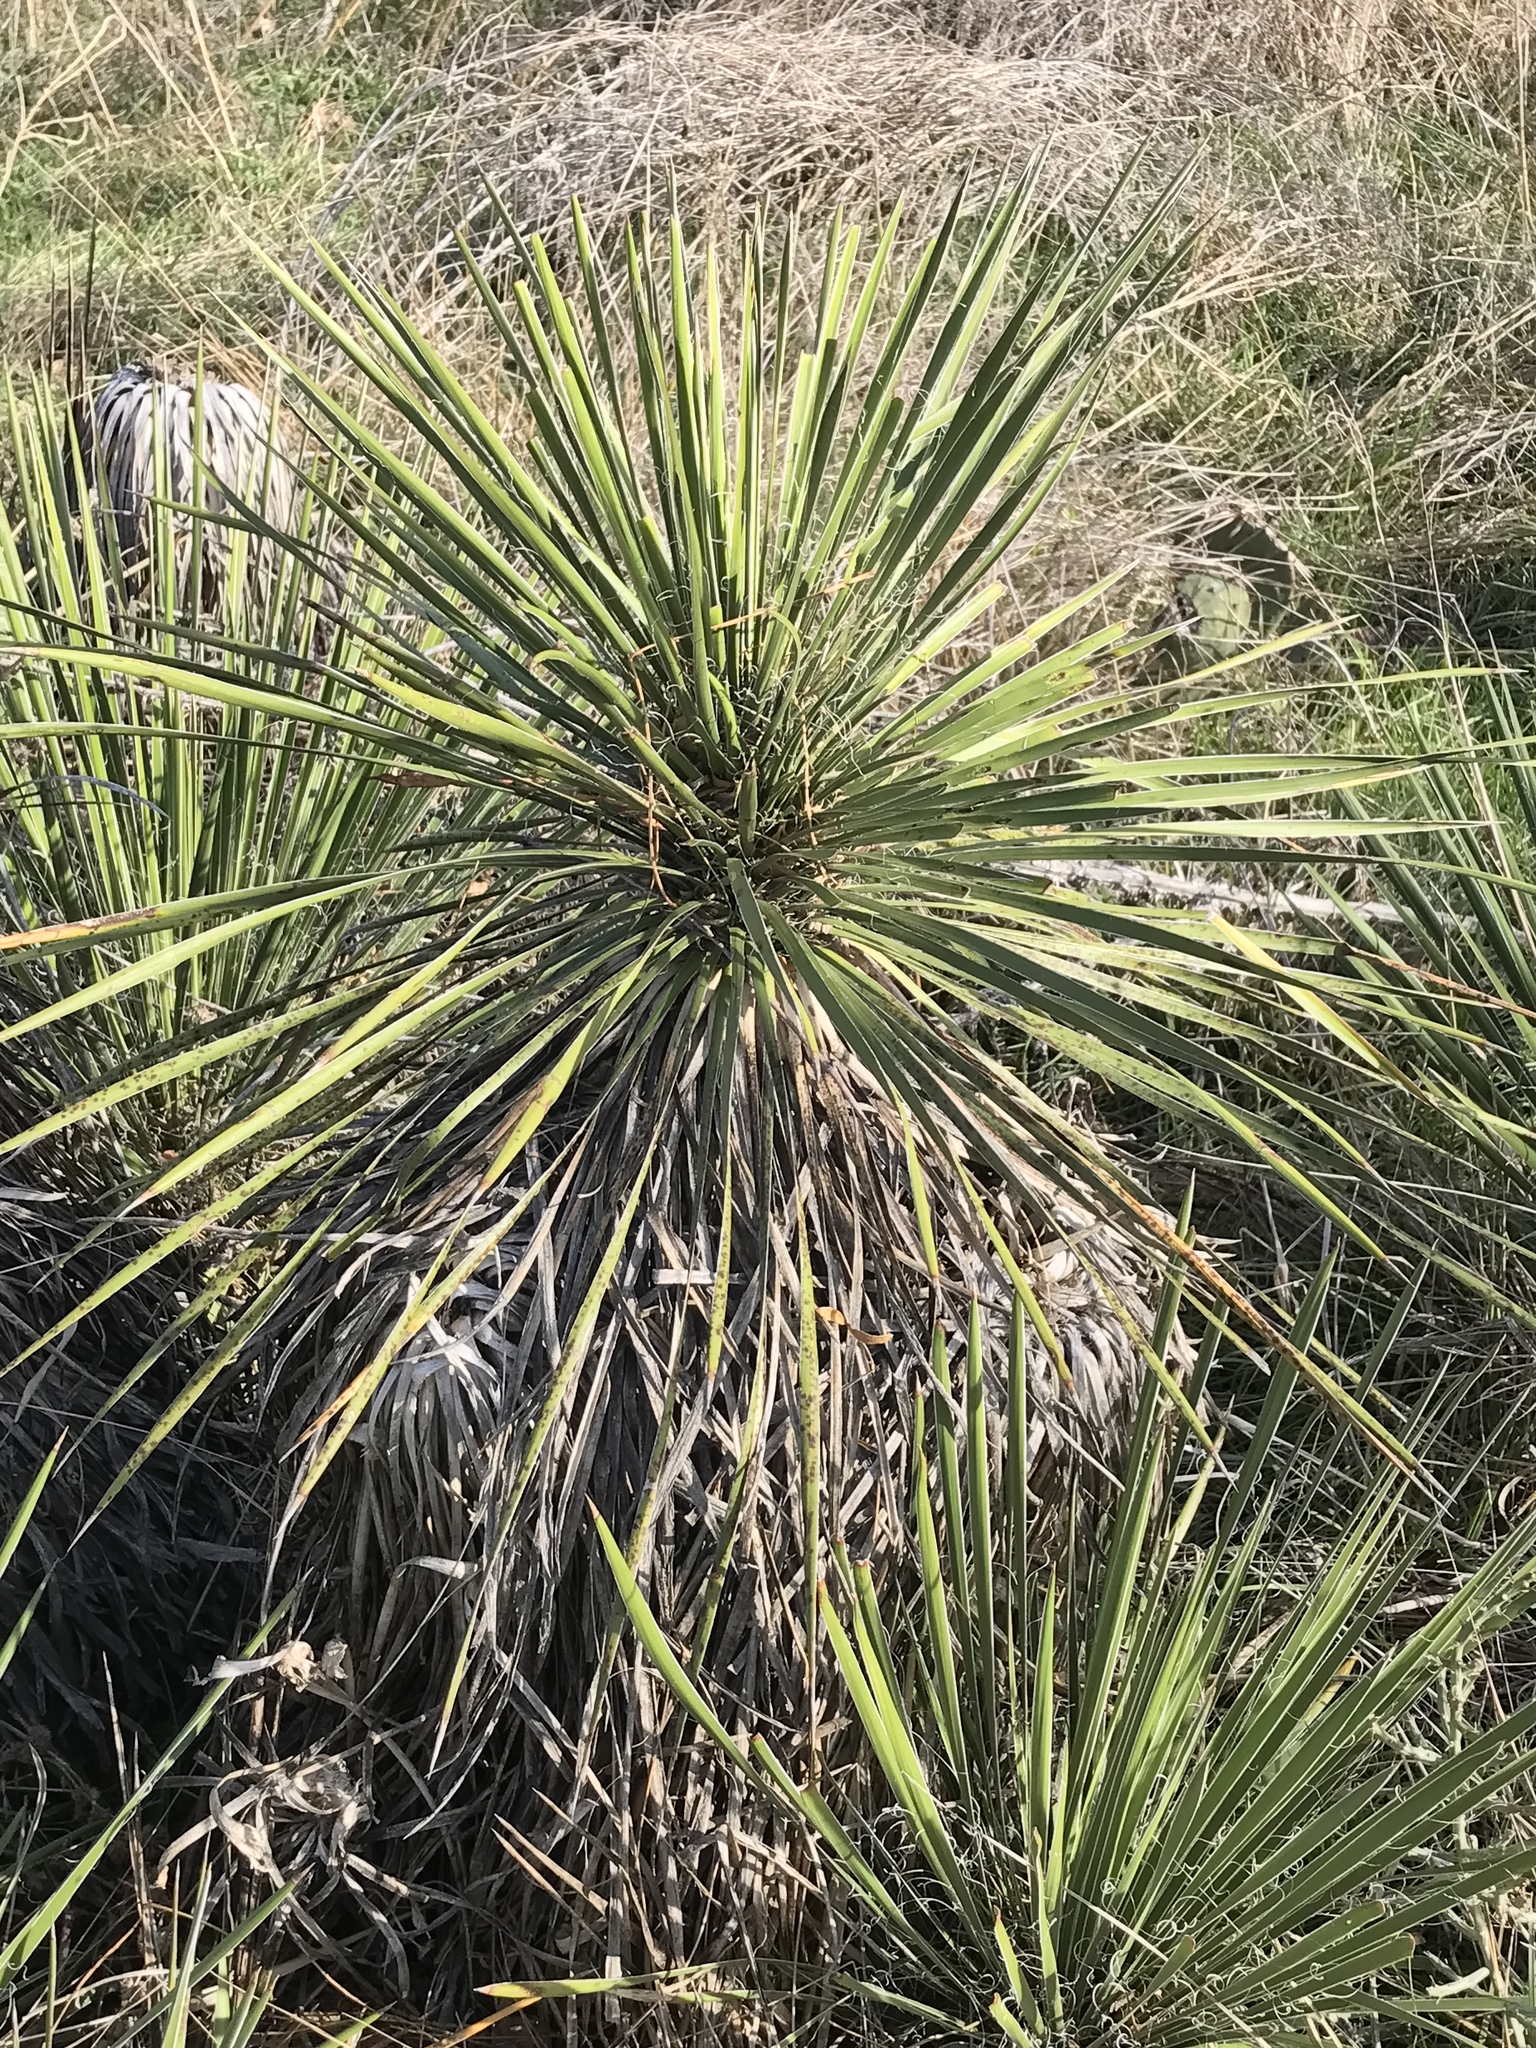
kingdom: Plantae
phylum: Tracheophyta
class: Liliopsida
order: Asparagales
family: Asparagaceae
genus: Yucca
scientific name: Yucca constricta
